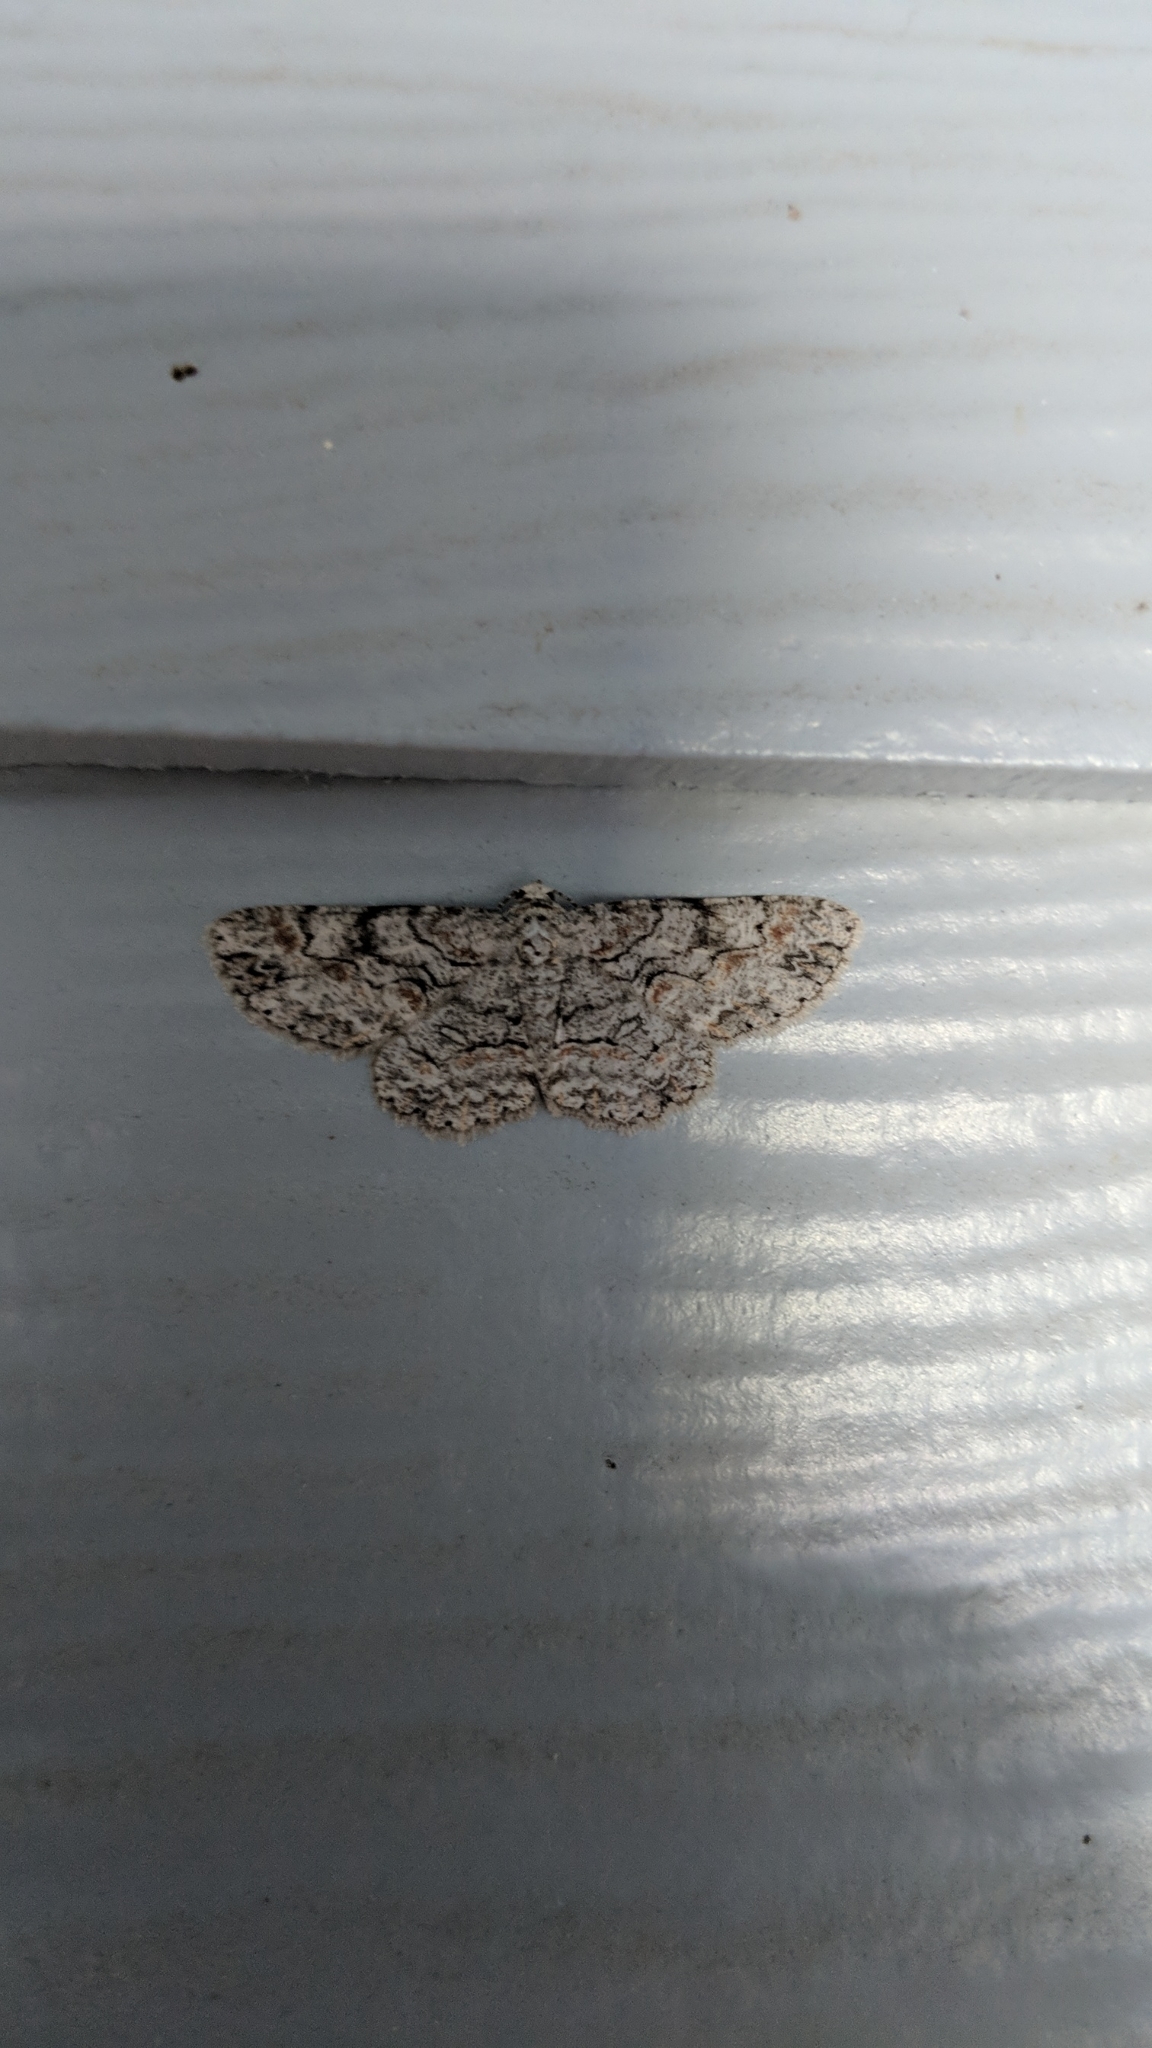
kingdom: Animalia
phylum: Arthropoda
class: Insecta
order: Lepidoptera
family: Geometridae
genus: Iridopsis
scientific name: Iridopsis defectaria
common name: Brown-shaded gray
